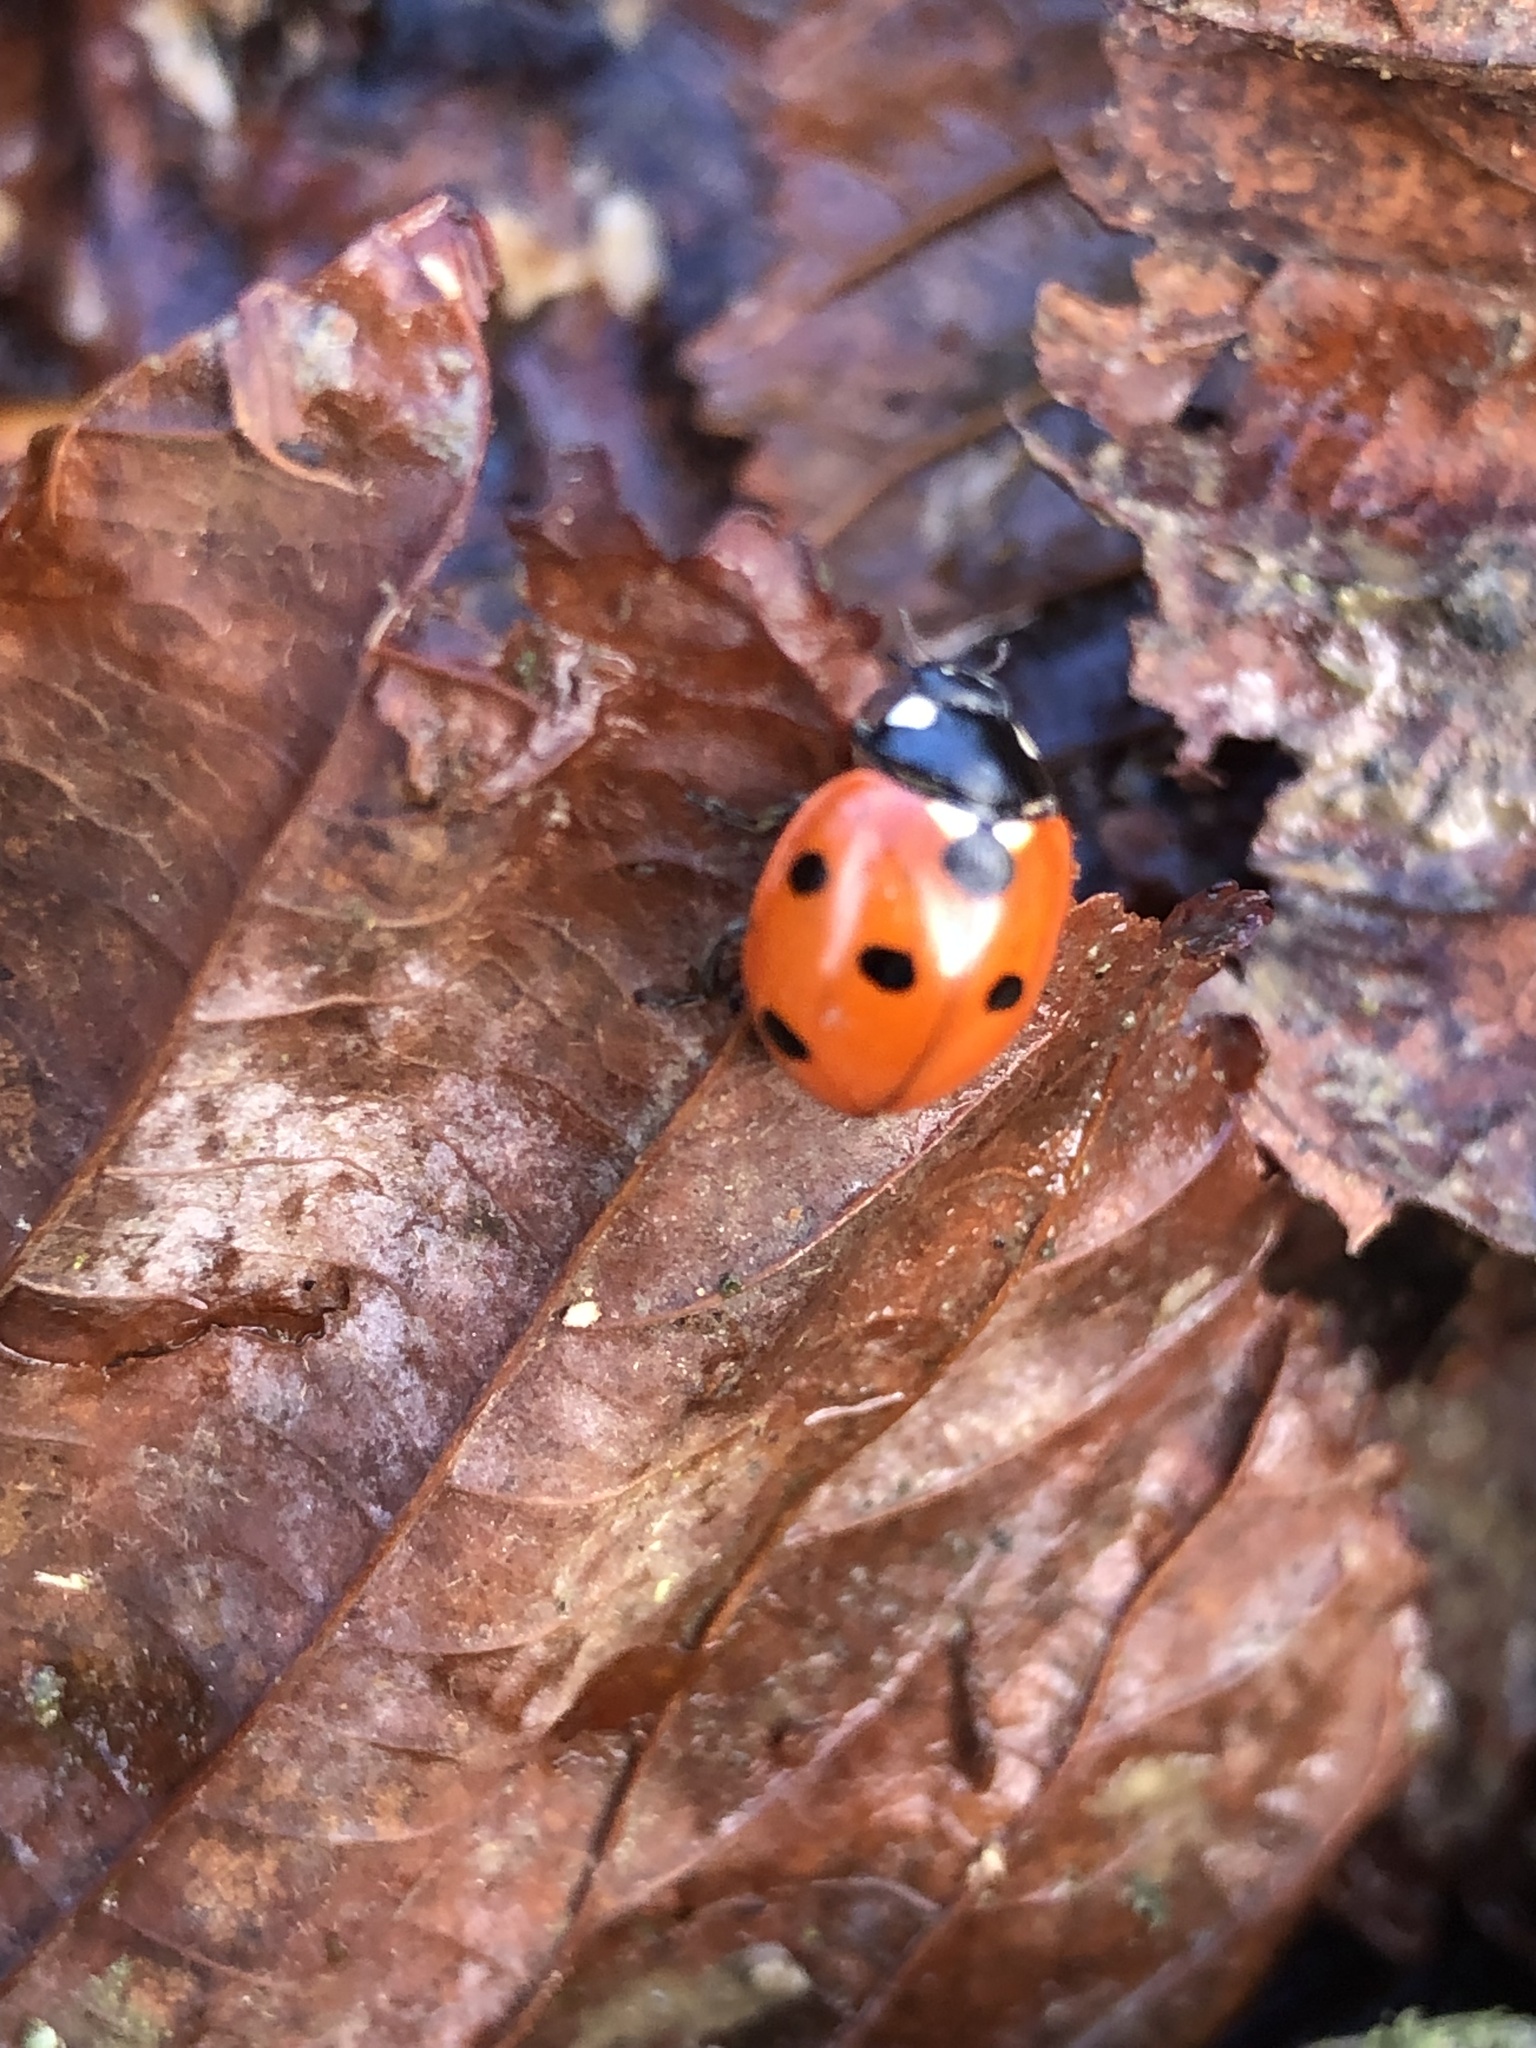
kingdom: Animalia
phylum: Arthropoda
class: Insecta
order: Coleoptera
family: Coccinellidae
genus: Coccinella
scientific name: Coccinella septempunctata
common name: Sevenspotted lady beetle
